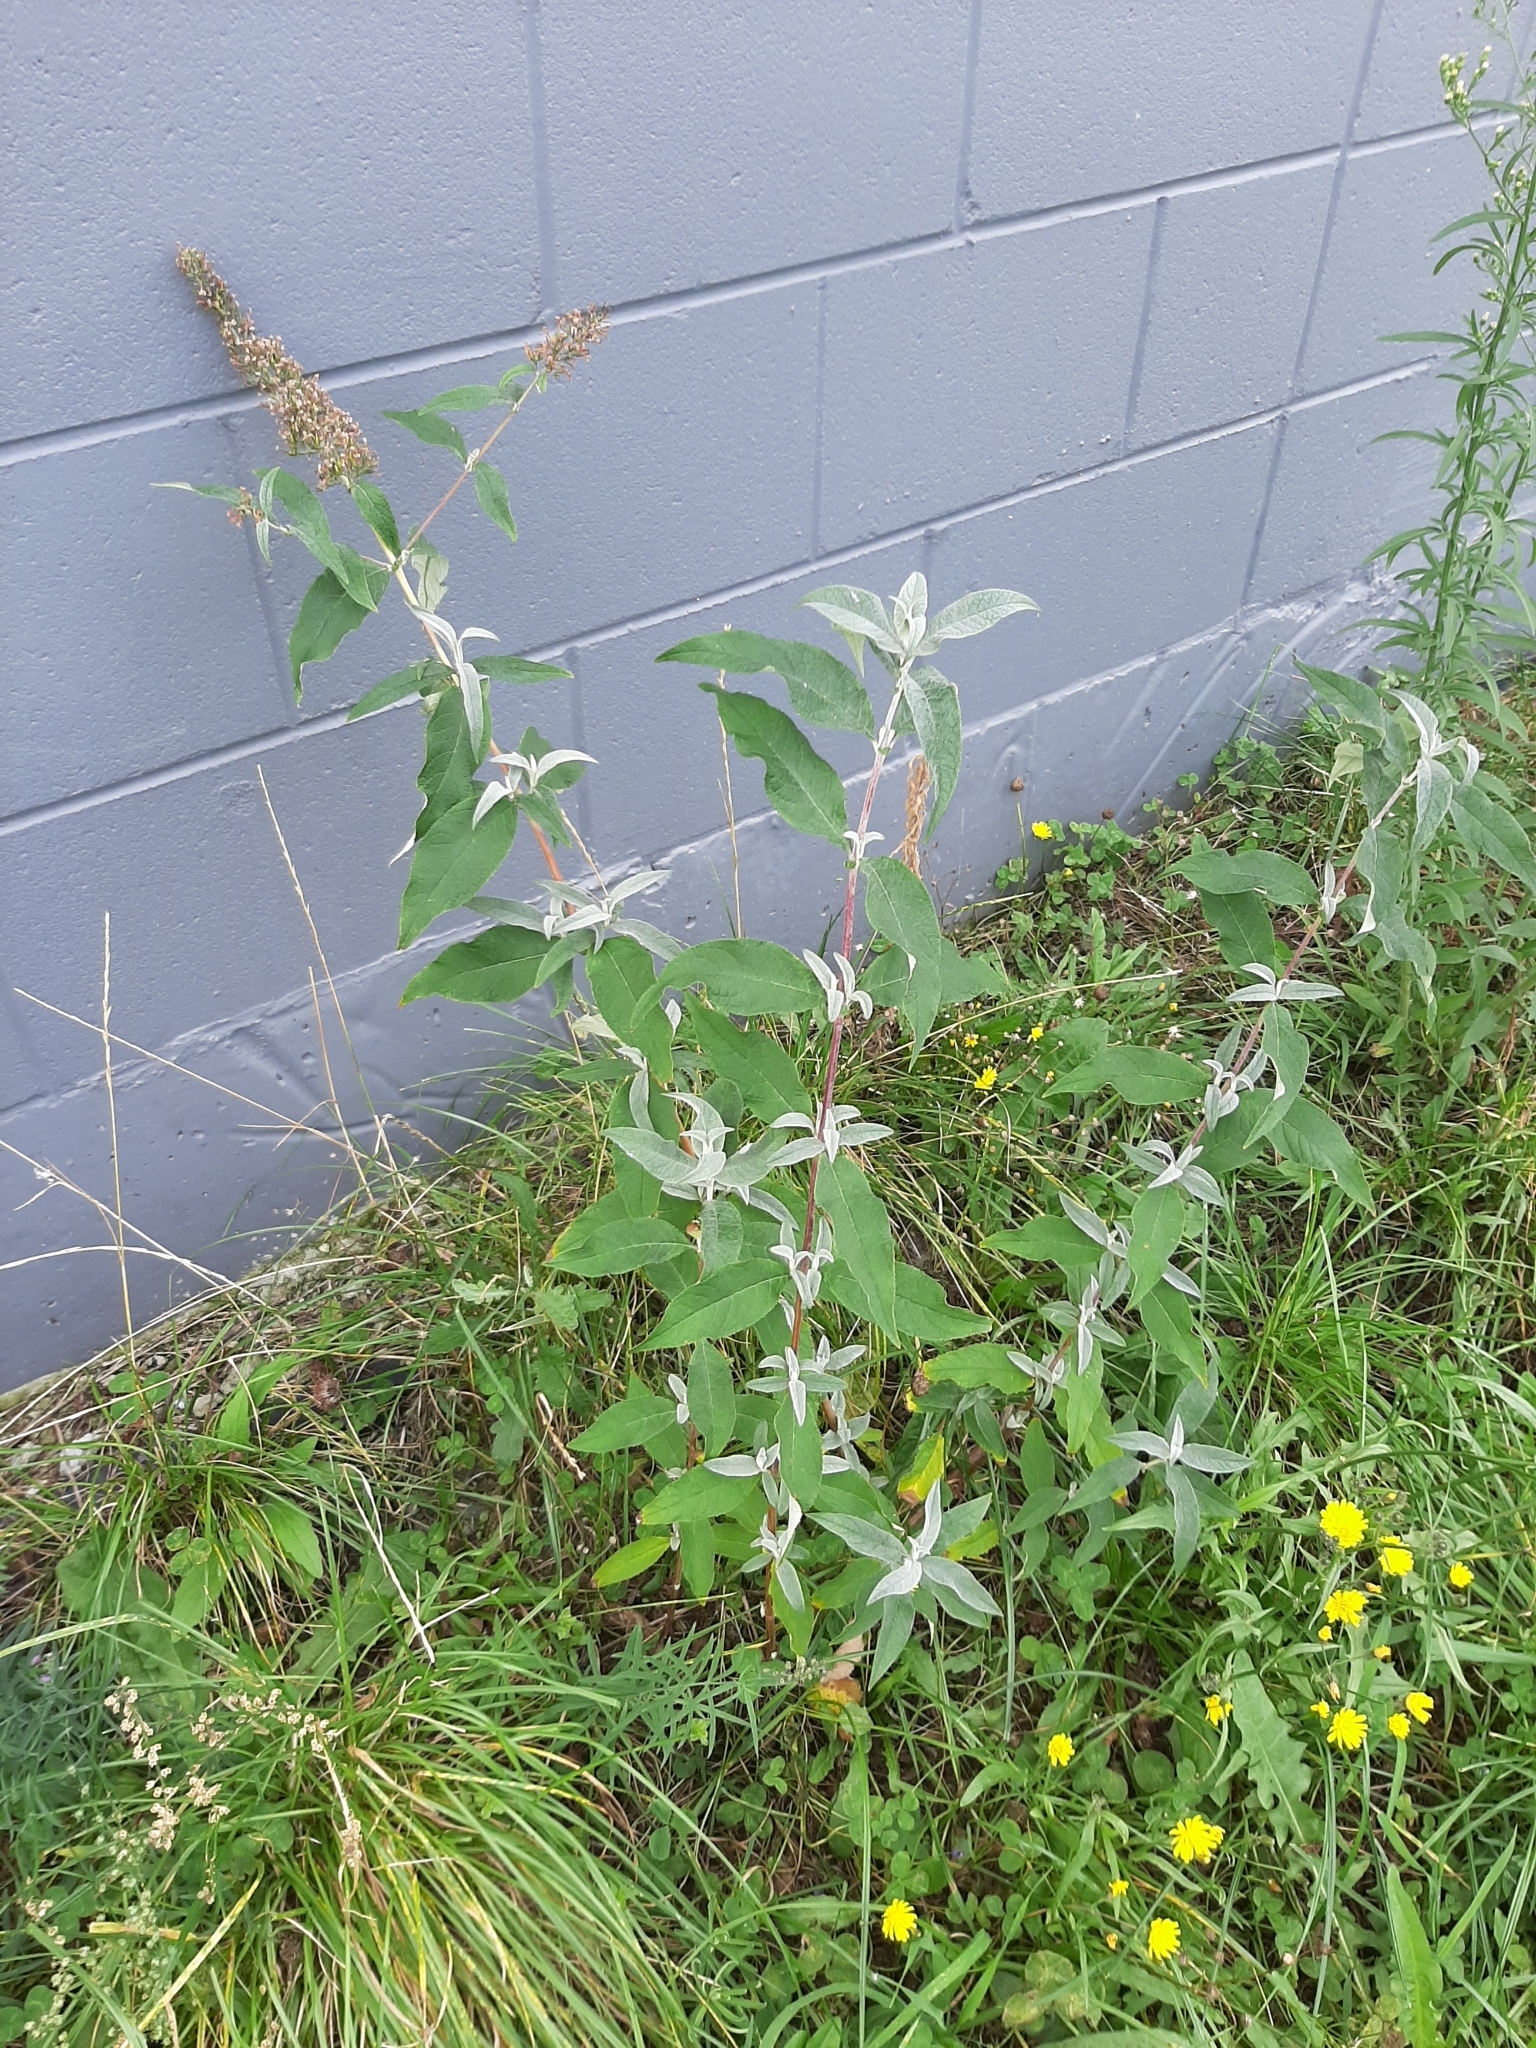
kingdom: Plantae
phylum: Tracheophyta
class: Magnoliopsida
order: Lamiales
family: Scrophulariaceae
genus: Buddleja
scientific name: Buddleja davidii
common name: Butterfly-bush
